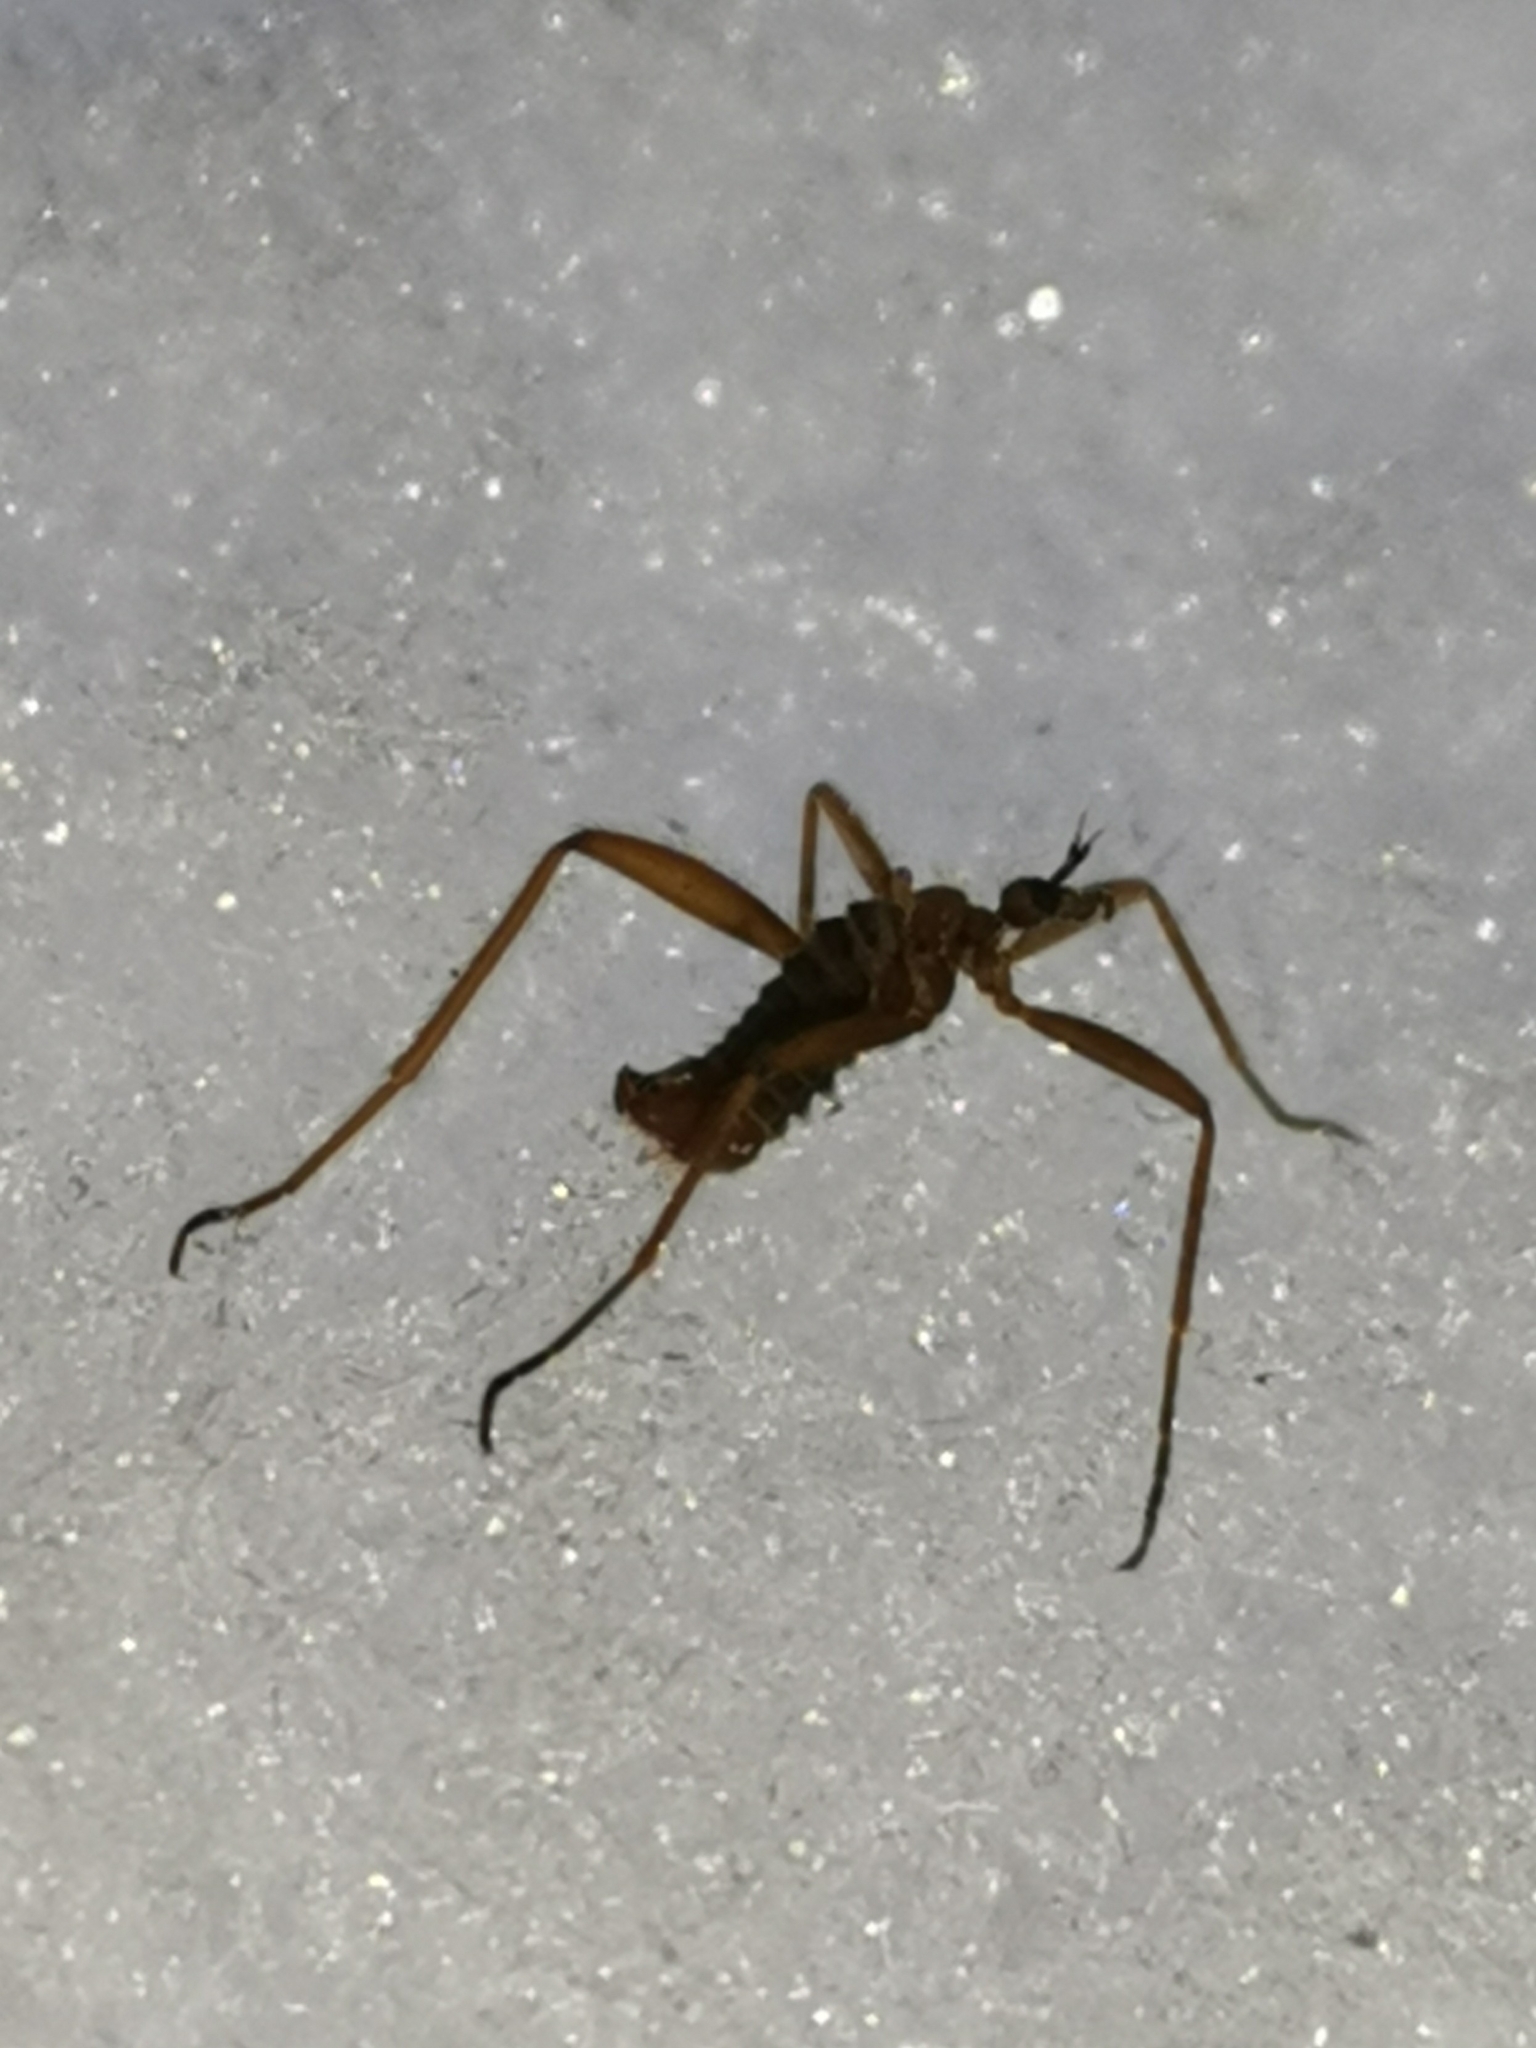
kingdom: Animalia
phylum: Arthropoda
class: Insecta
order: Diptera
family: Limoniidae
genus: Chionea
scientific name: Chionea lutescens
